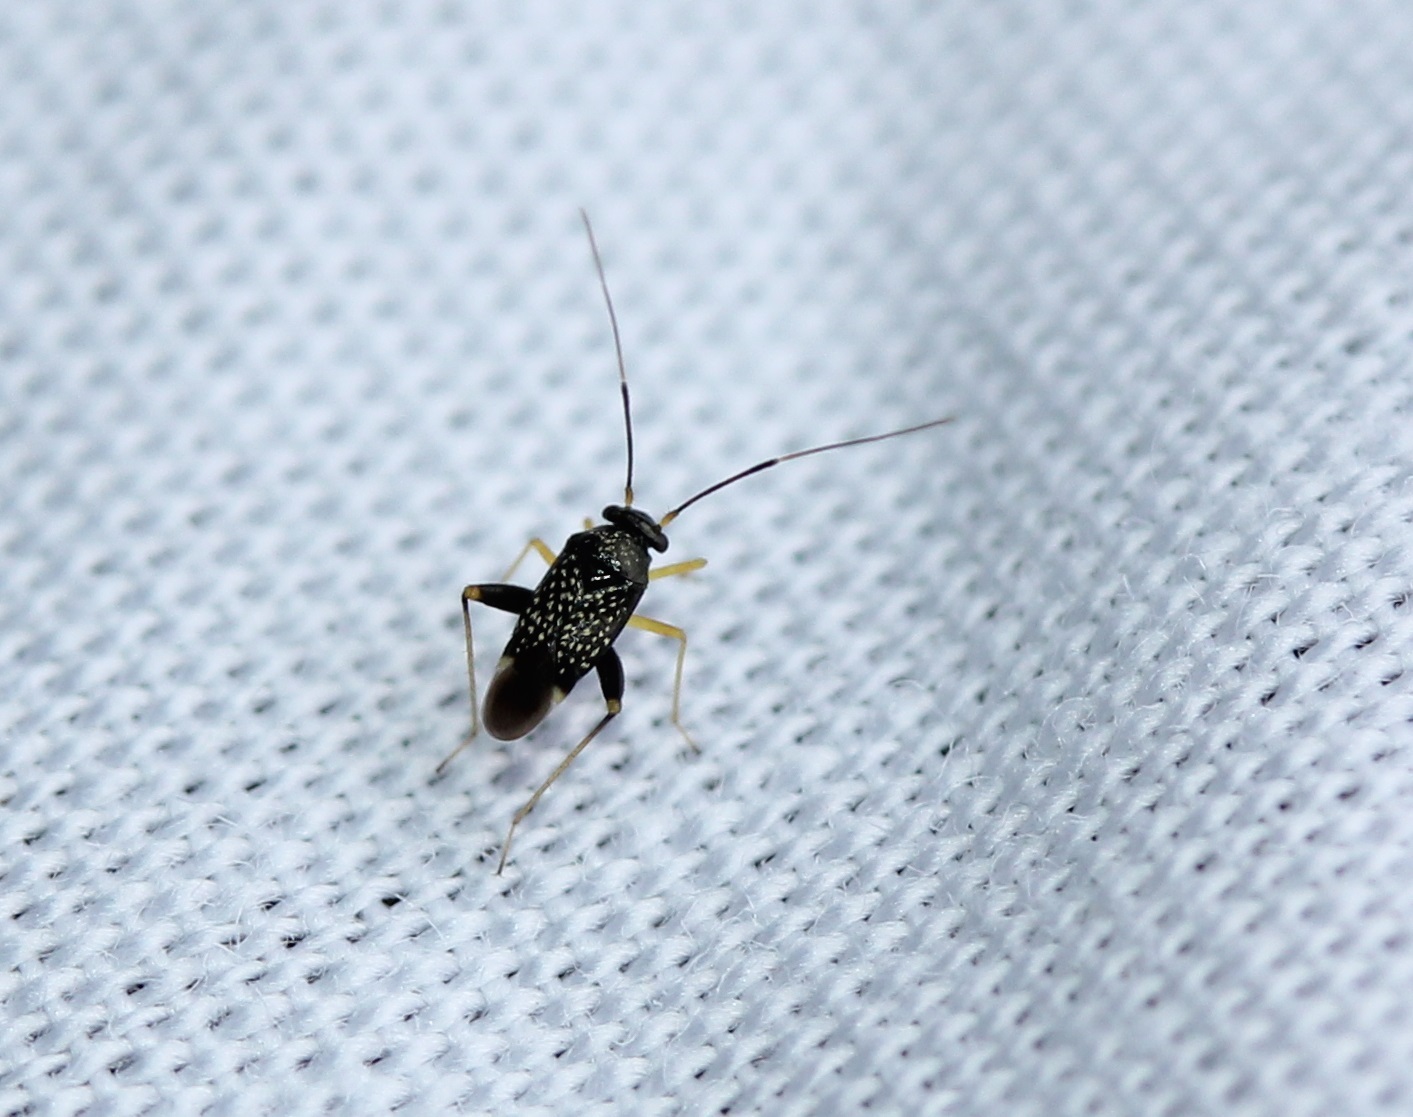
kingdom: Animalia
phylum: Arthropoda
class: Insecta
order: Hemiptera
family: Miridae
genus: Microtechnites
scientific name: Microtechnites bractatus
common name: Garden fleahopper
